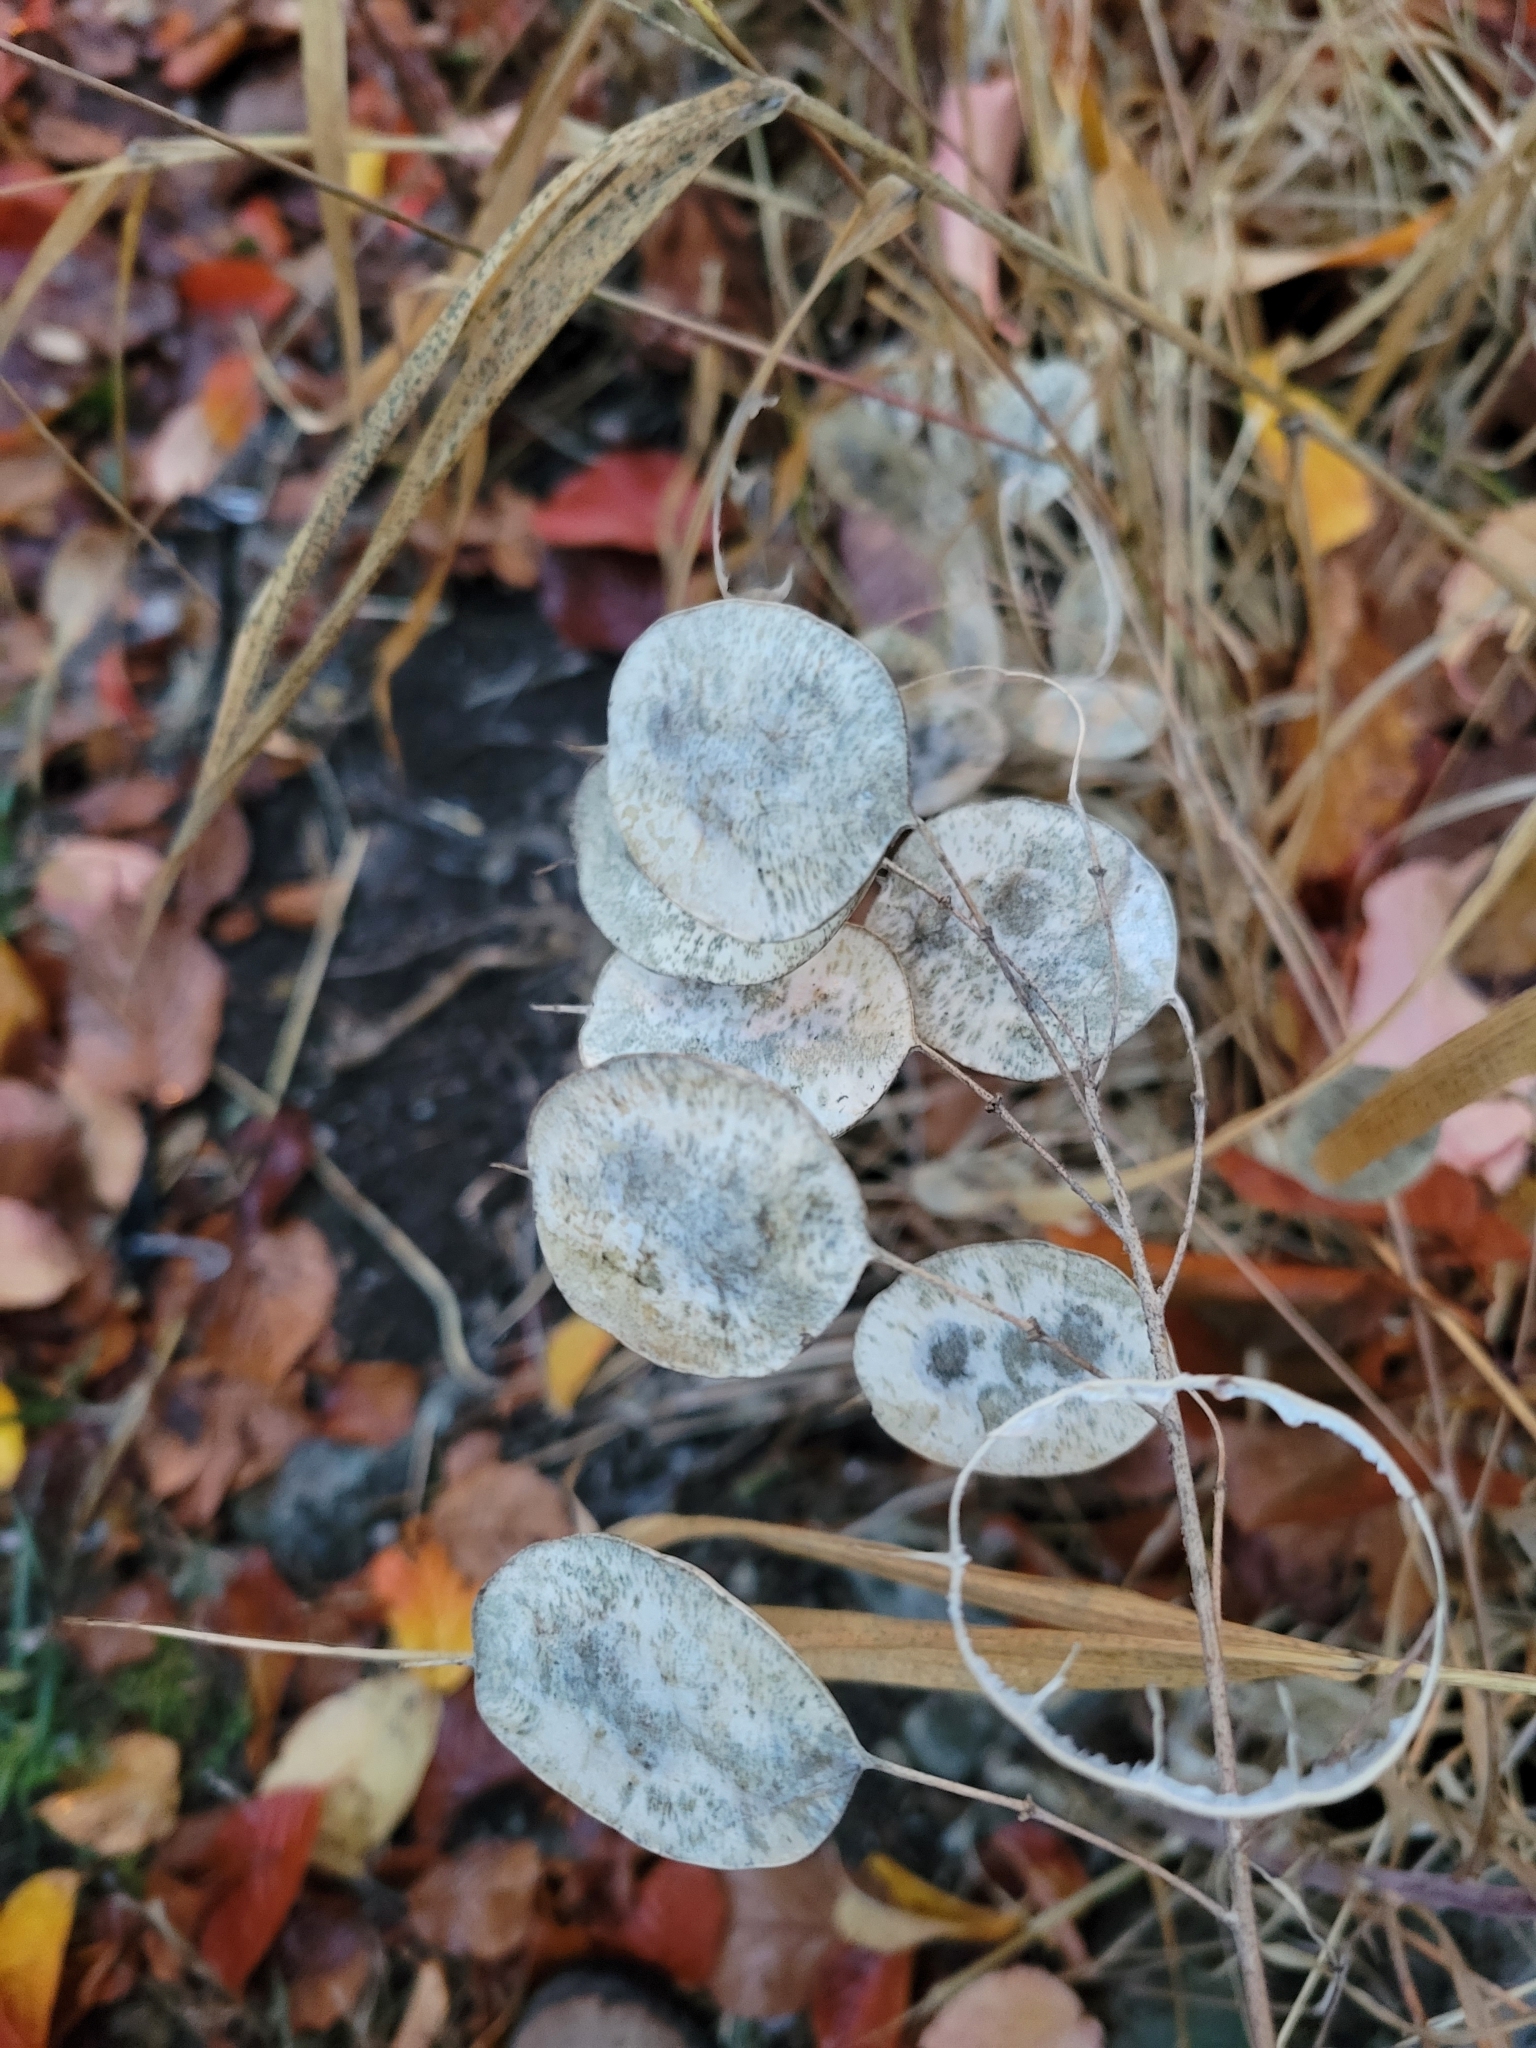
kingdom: Plantae
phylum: Tracheophyta
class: Magnoliopsida
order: Brassicales
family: Brassicaceae
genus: Lunaria
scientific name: Lunaria annua
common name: Honesty
